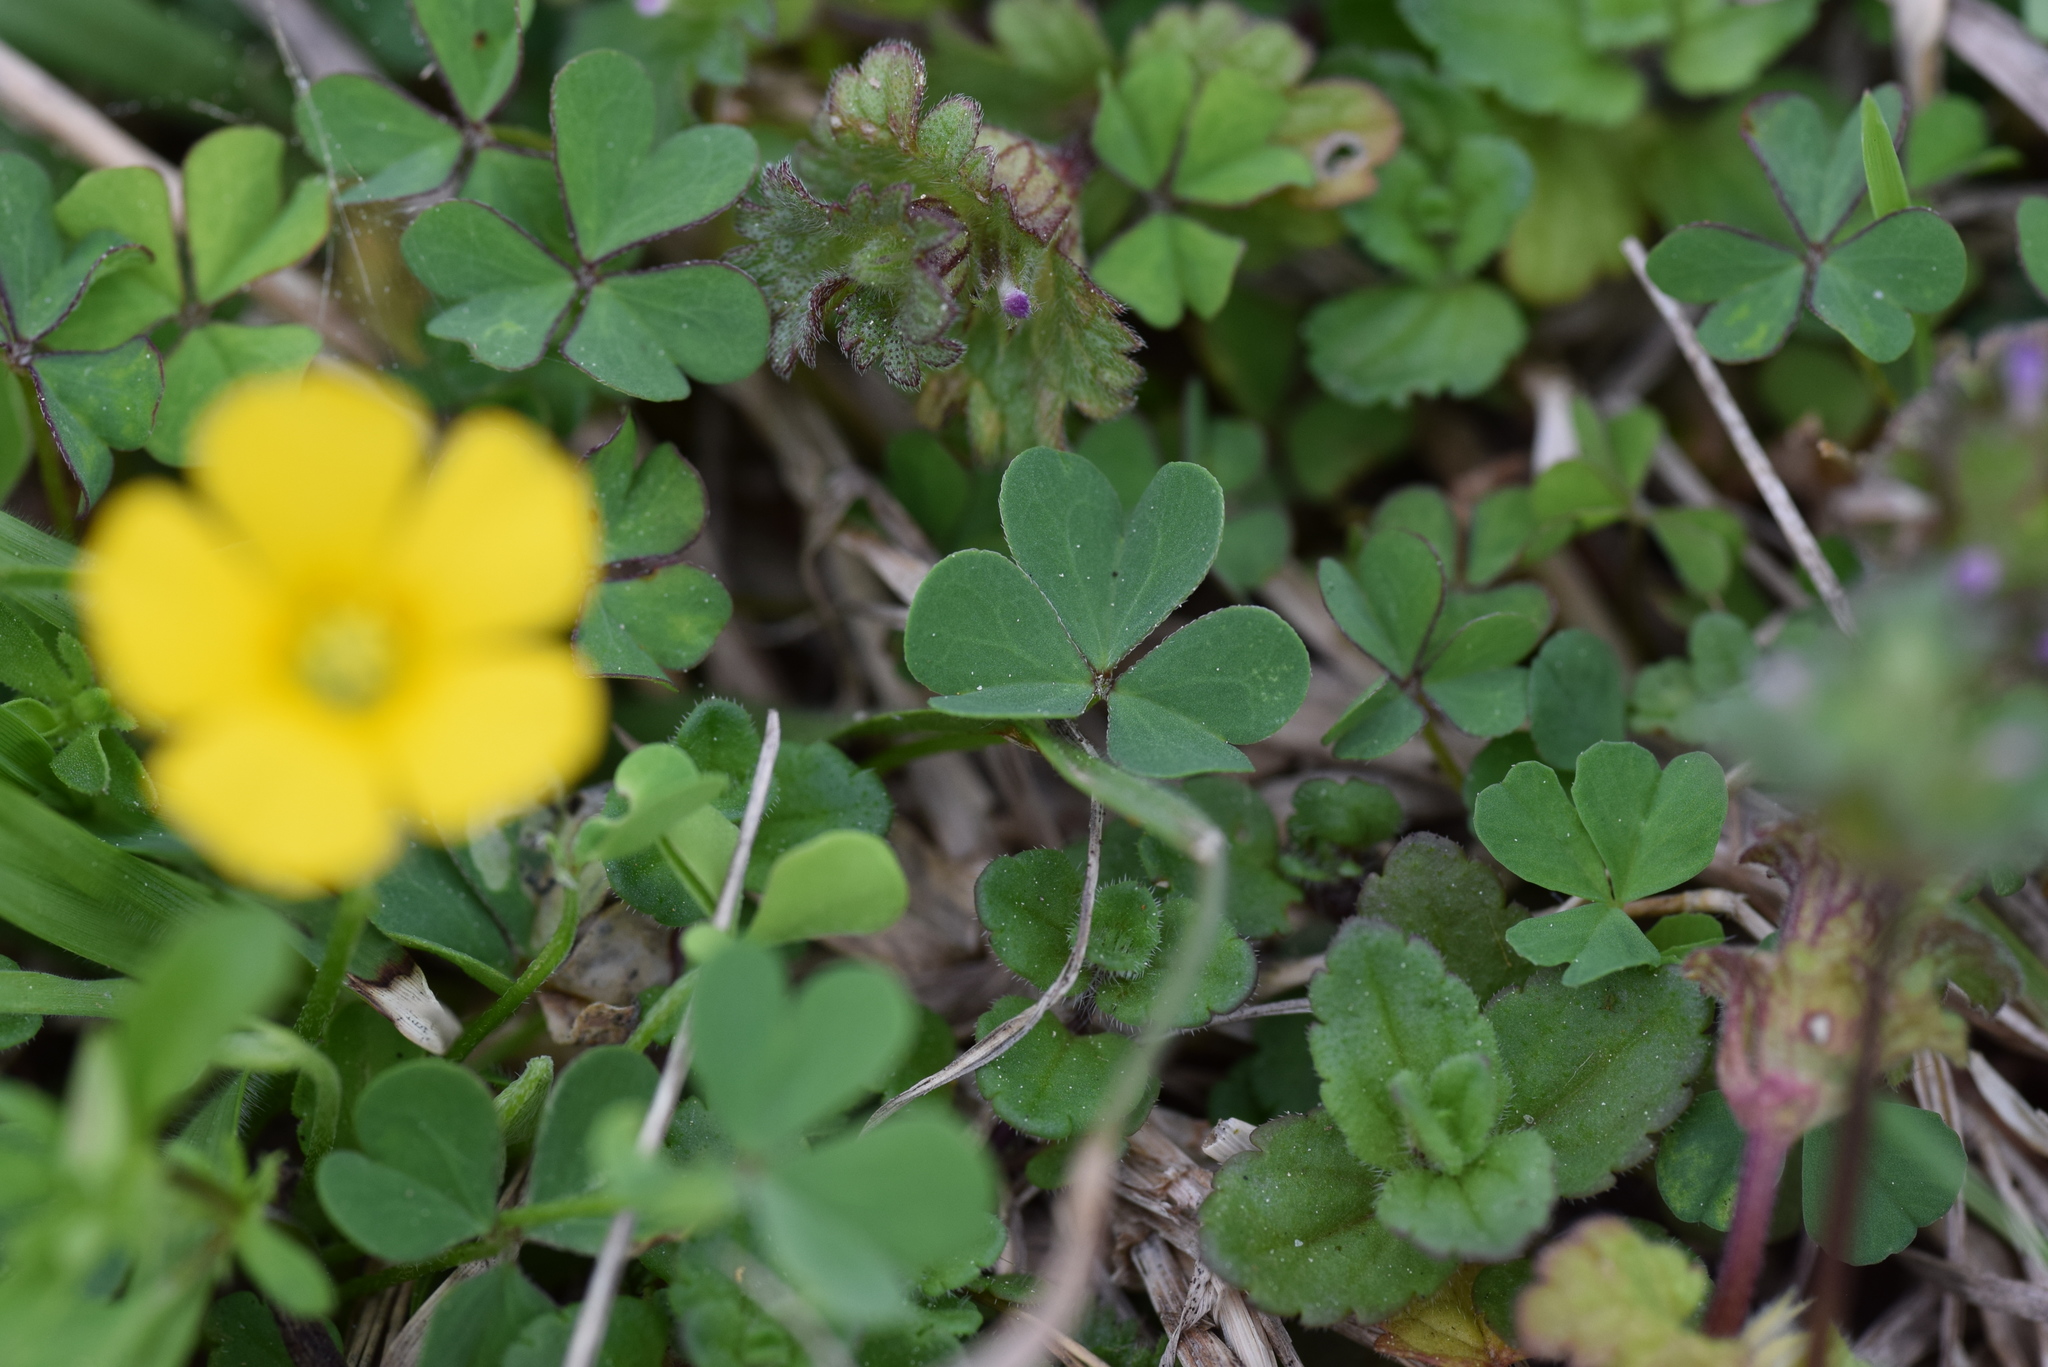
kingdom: Plantae
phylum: Tracheophyta
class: Magnoliopsida
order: Oxalidales
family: Oxalidaceae
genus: Oxalis
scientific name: Oxalis corniculata
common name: Procumbent yellow-sorrel
